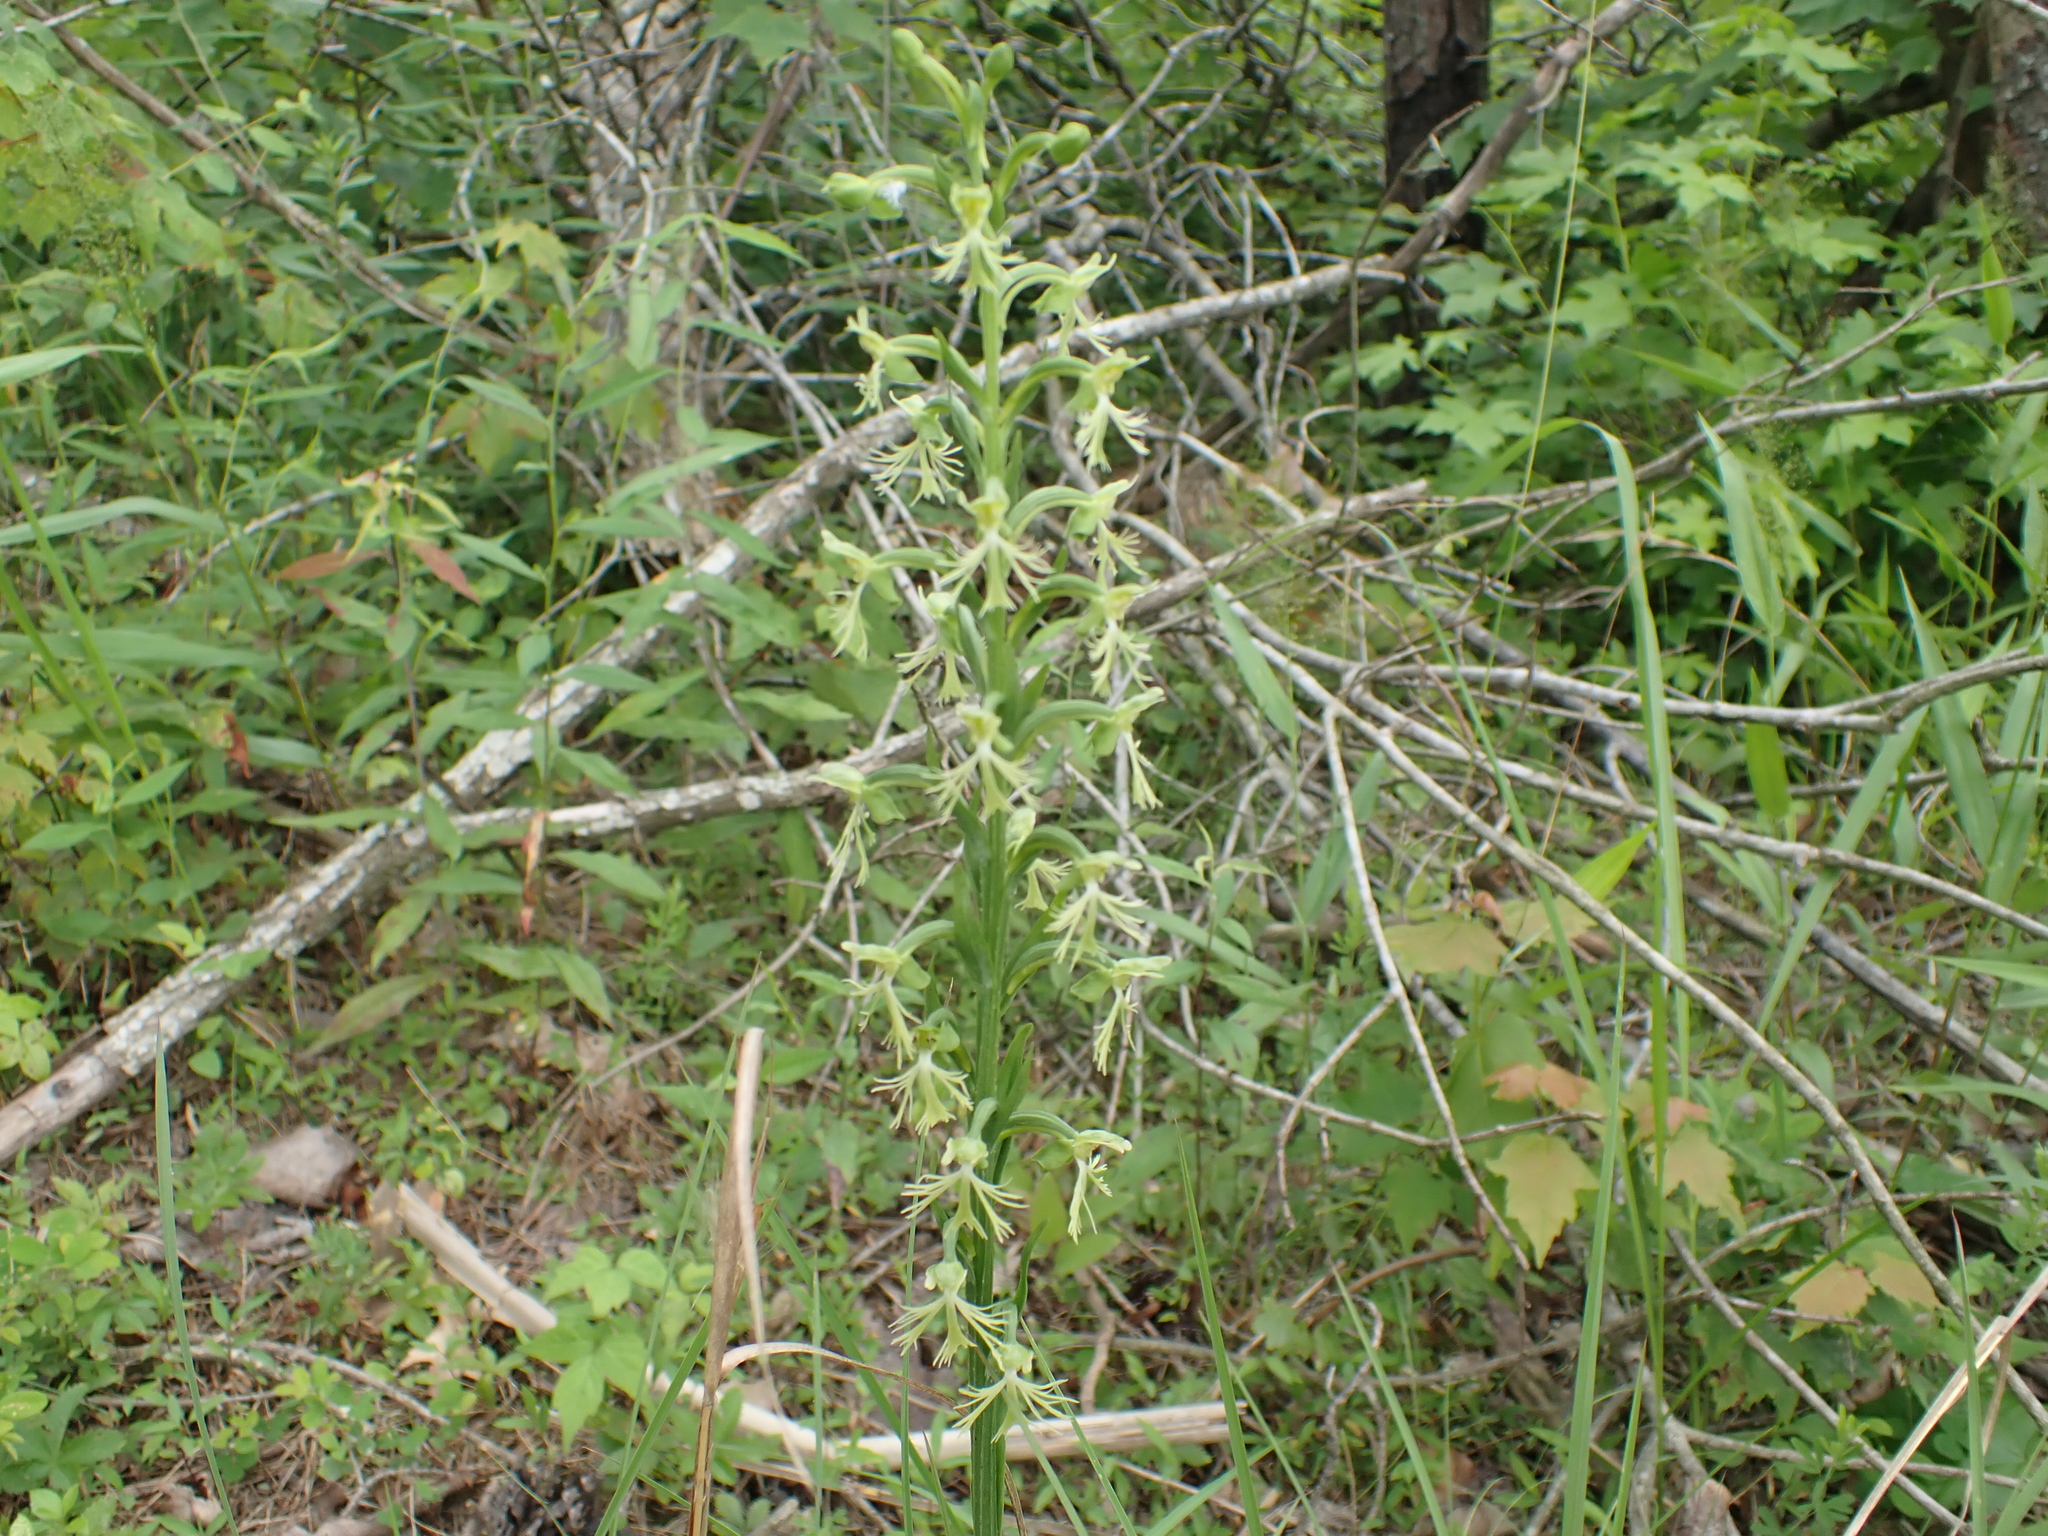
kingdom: Plantae
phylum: Tracheophyta
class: Liliopsida
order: Asparagales
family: Orchidaceae
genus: Platanthera
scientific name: Platanthera lacera
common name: Green fringed orchid
